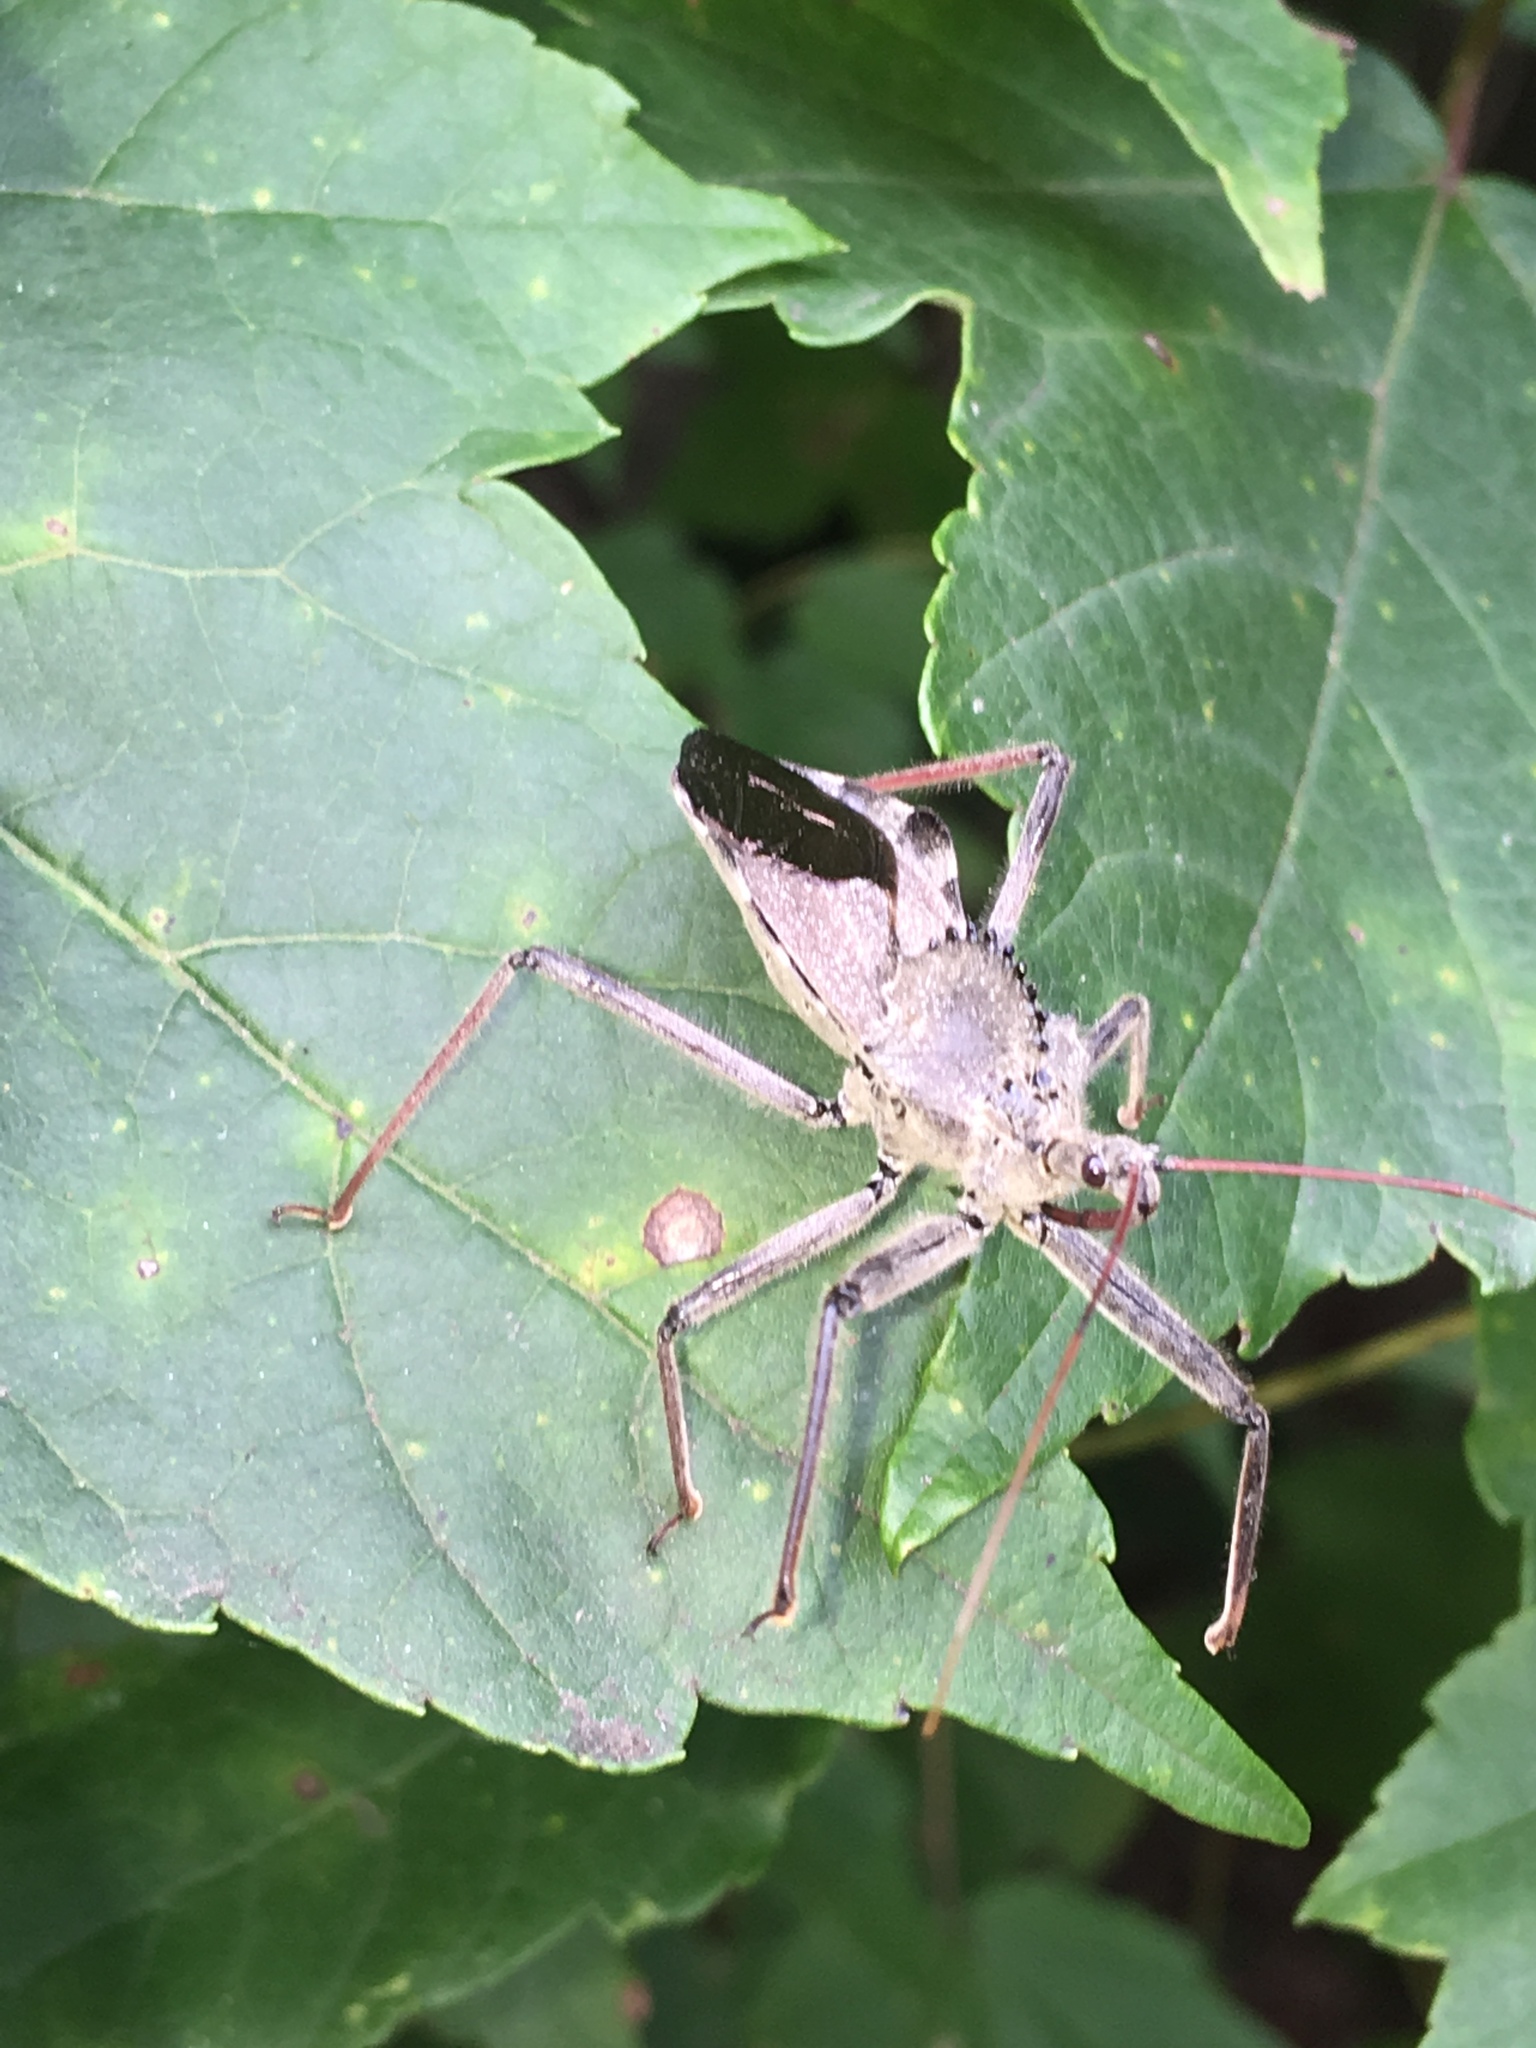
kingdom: Animalia
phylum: Arthropoda
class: Insecta
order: Hemiptera
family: Reduviidae
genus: Arilus
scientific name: Arilus cristatus
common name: North american wheel bug
